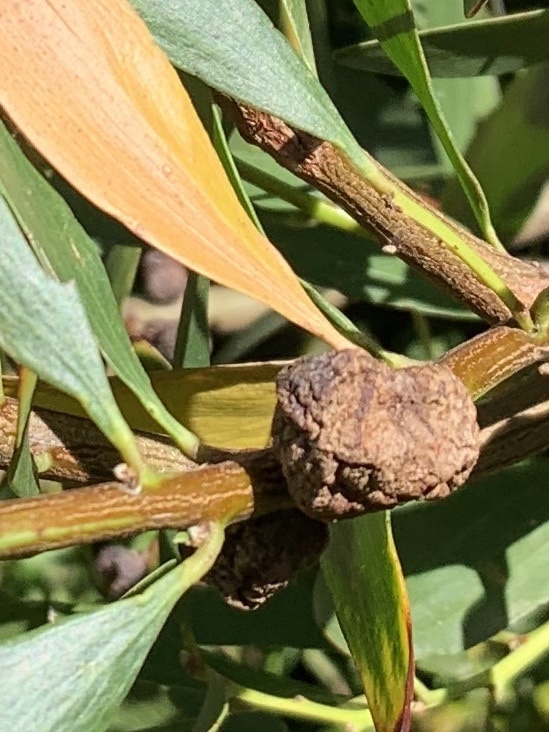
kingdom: Animalia
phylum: Arthropoda
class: Insecta
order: Hymenoptera
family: Pteromalidae
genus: Trichilogaster
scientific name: Trichilogaster acaciaelongifoliae
